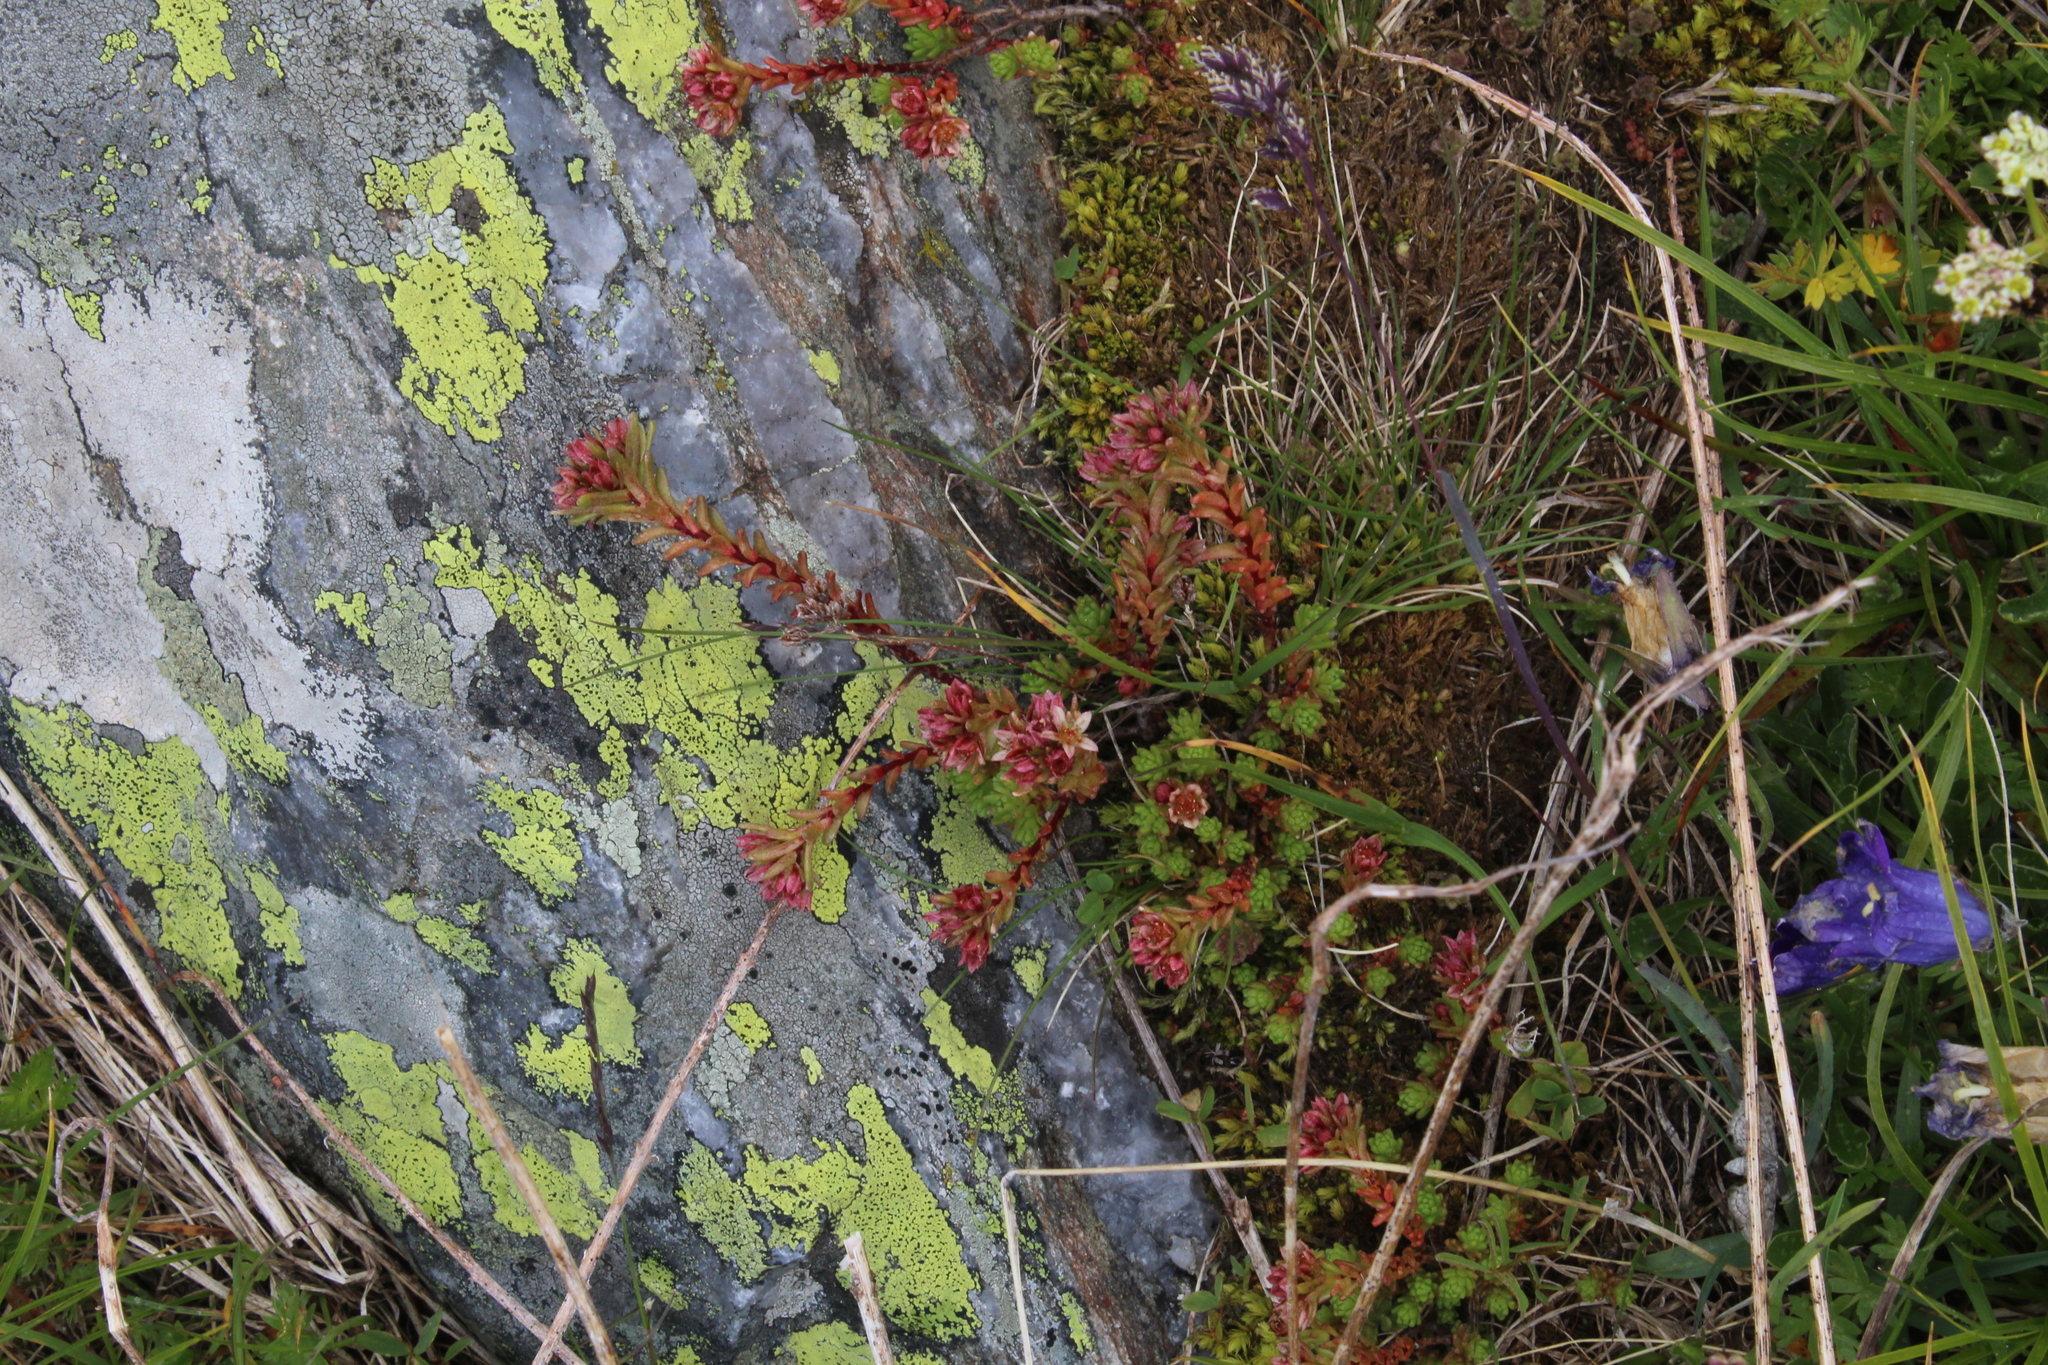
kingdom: Plantae
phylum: Tracheophyta
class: Magnoliopsida
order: Saxifragales
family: Crassulaceae
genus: Sedum
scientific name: Sedum tenellum
